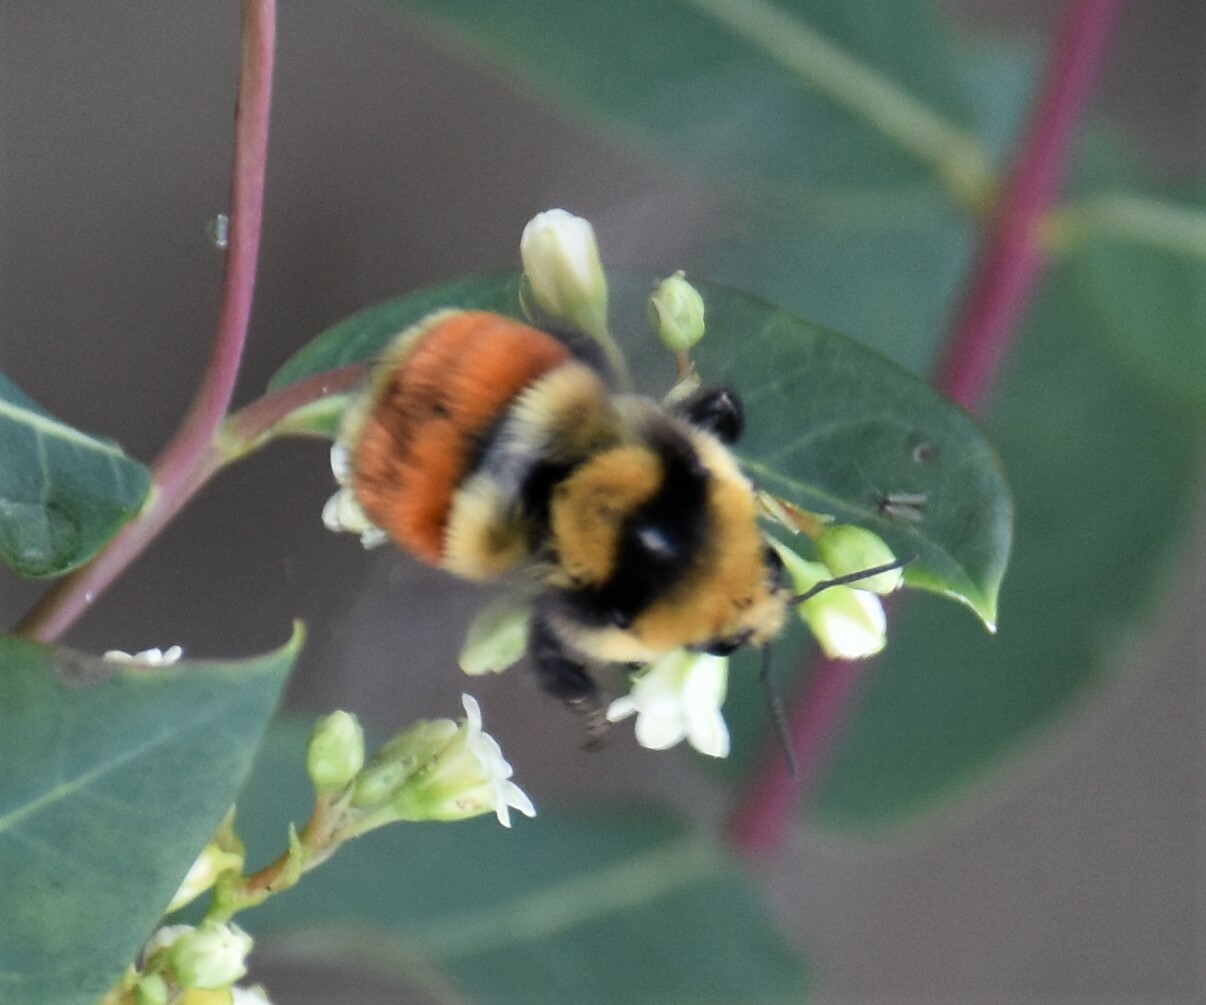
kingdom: Animalia
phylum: Arthropoda
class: Insecta
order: Hymenoptera
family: Apidae
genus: Bombus
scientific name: Bombus huntii
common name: Hunt bumble bee
